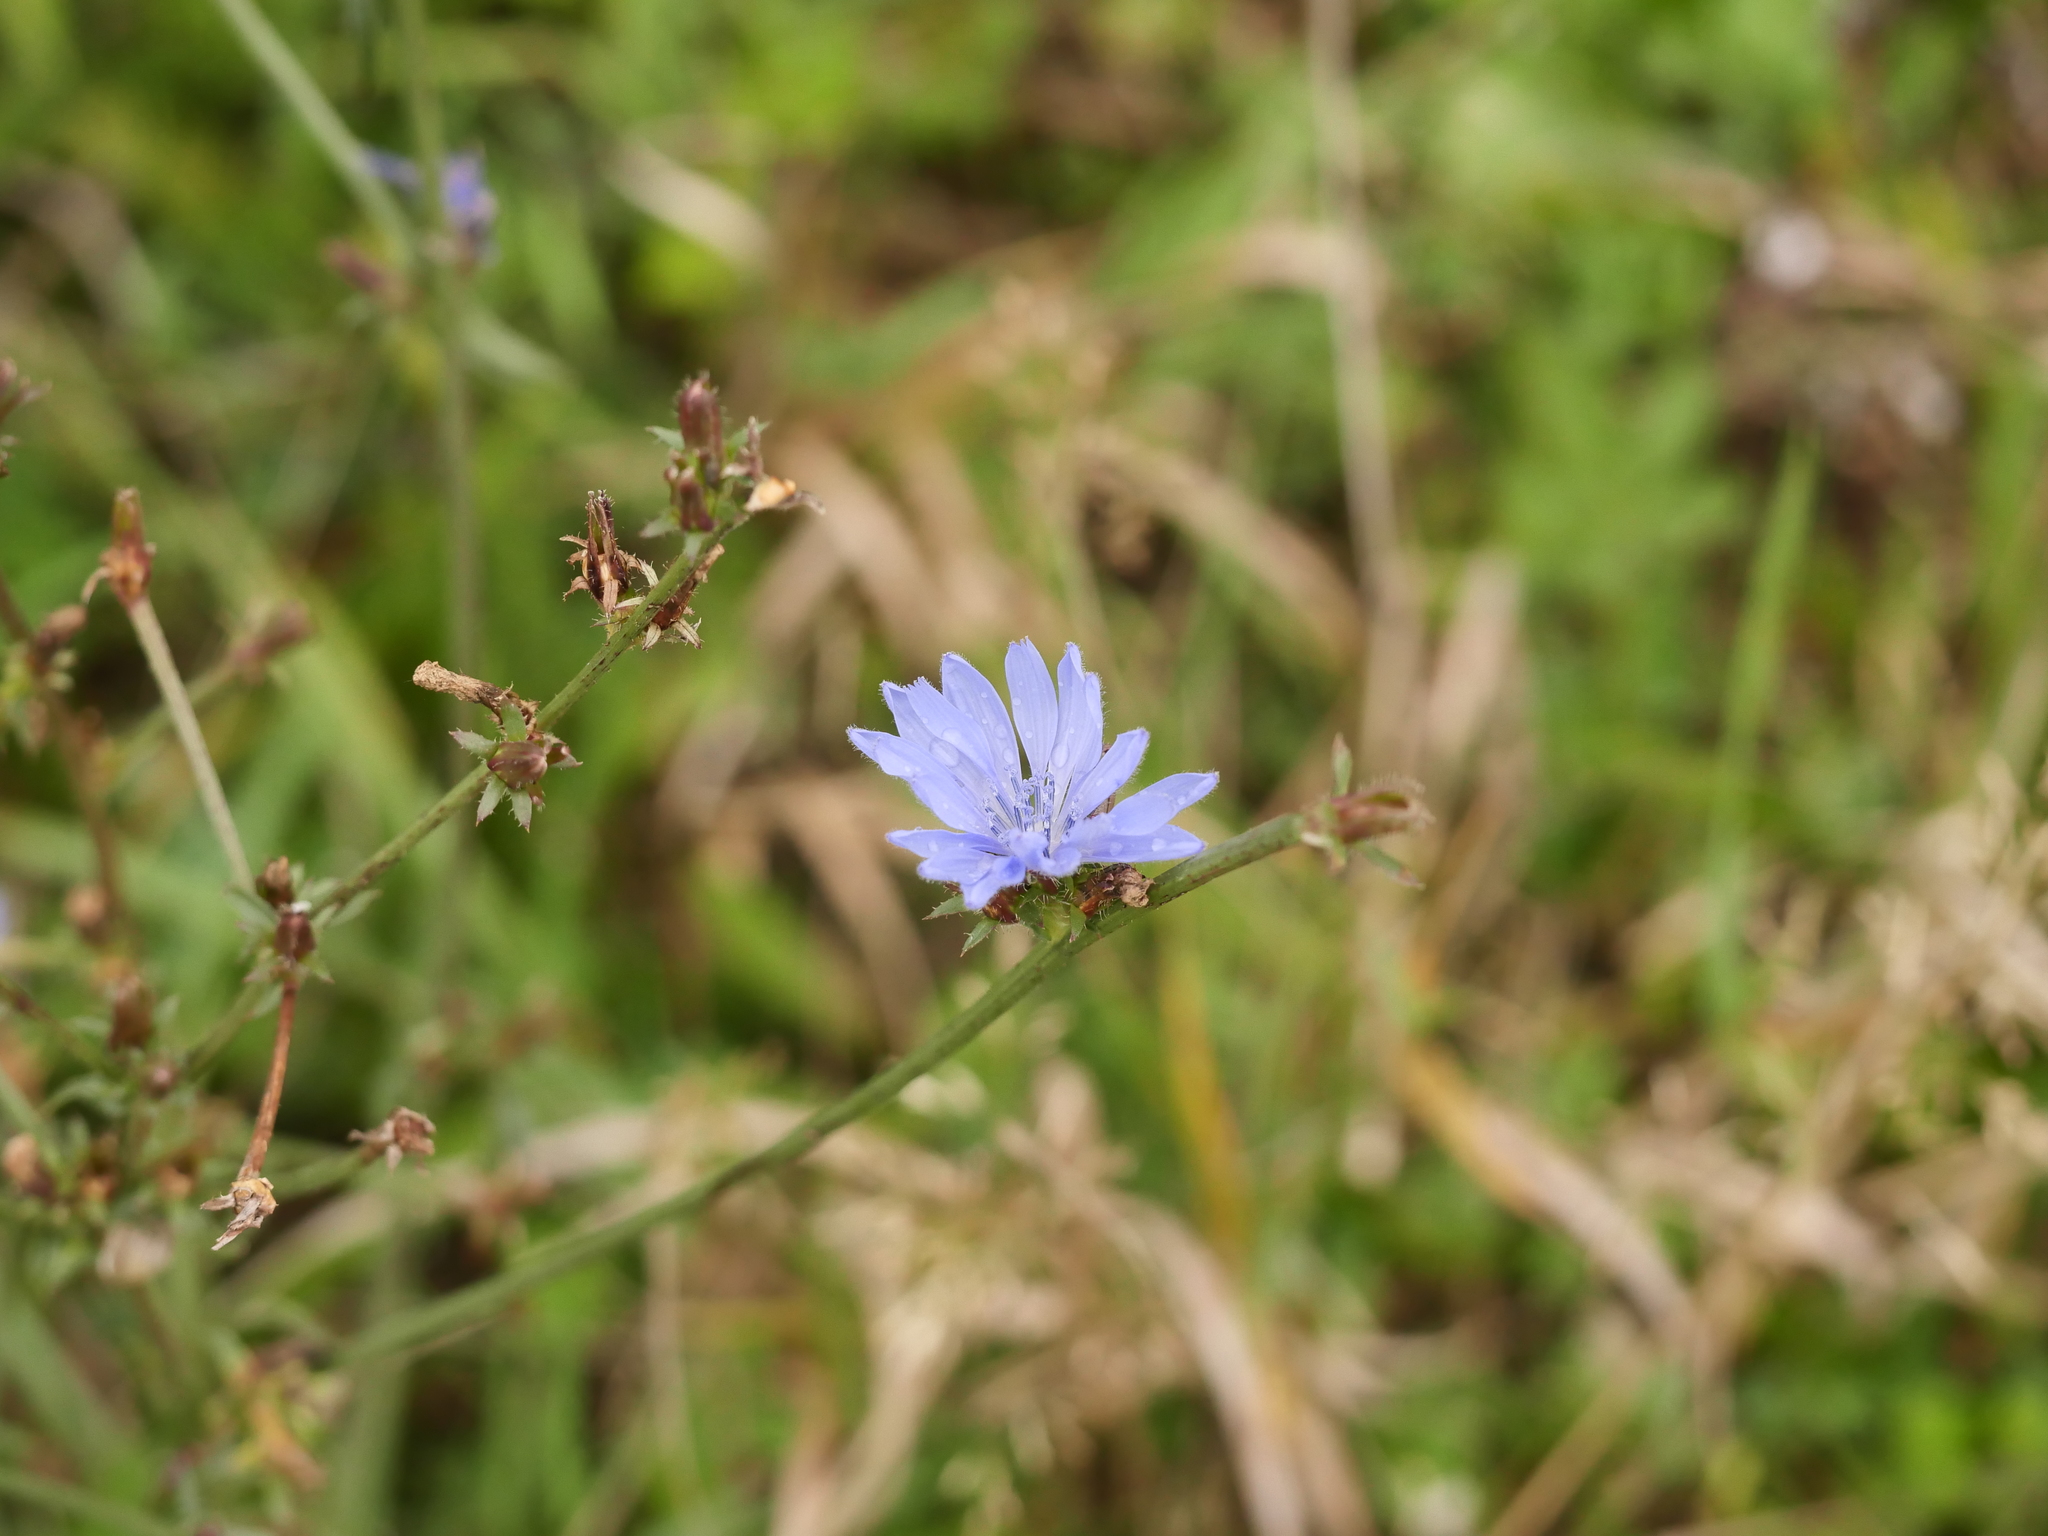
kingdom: Plantae
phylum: Tracheophyta
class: Magnoliopsida
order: Asterales
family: Asteraceae
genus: Cichorium
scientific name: Cichorium intybus
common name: Chicory
